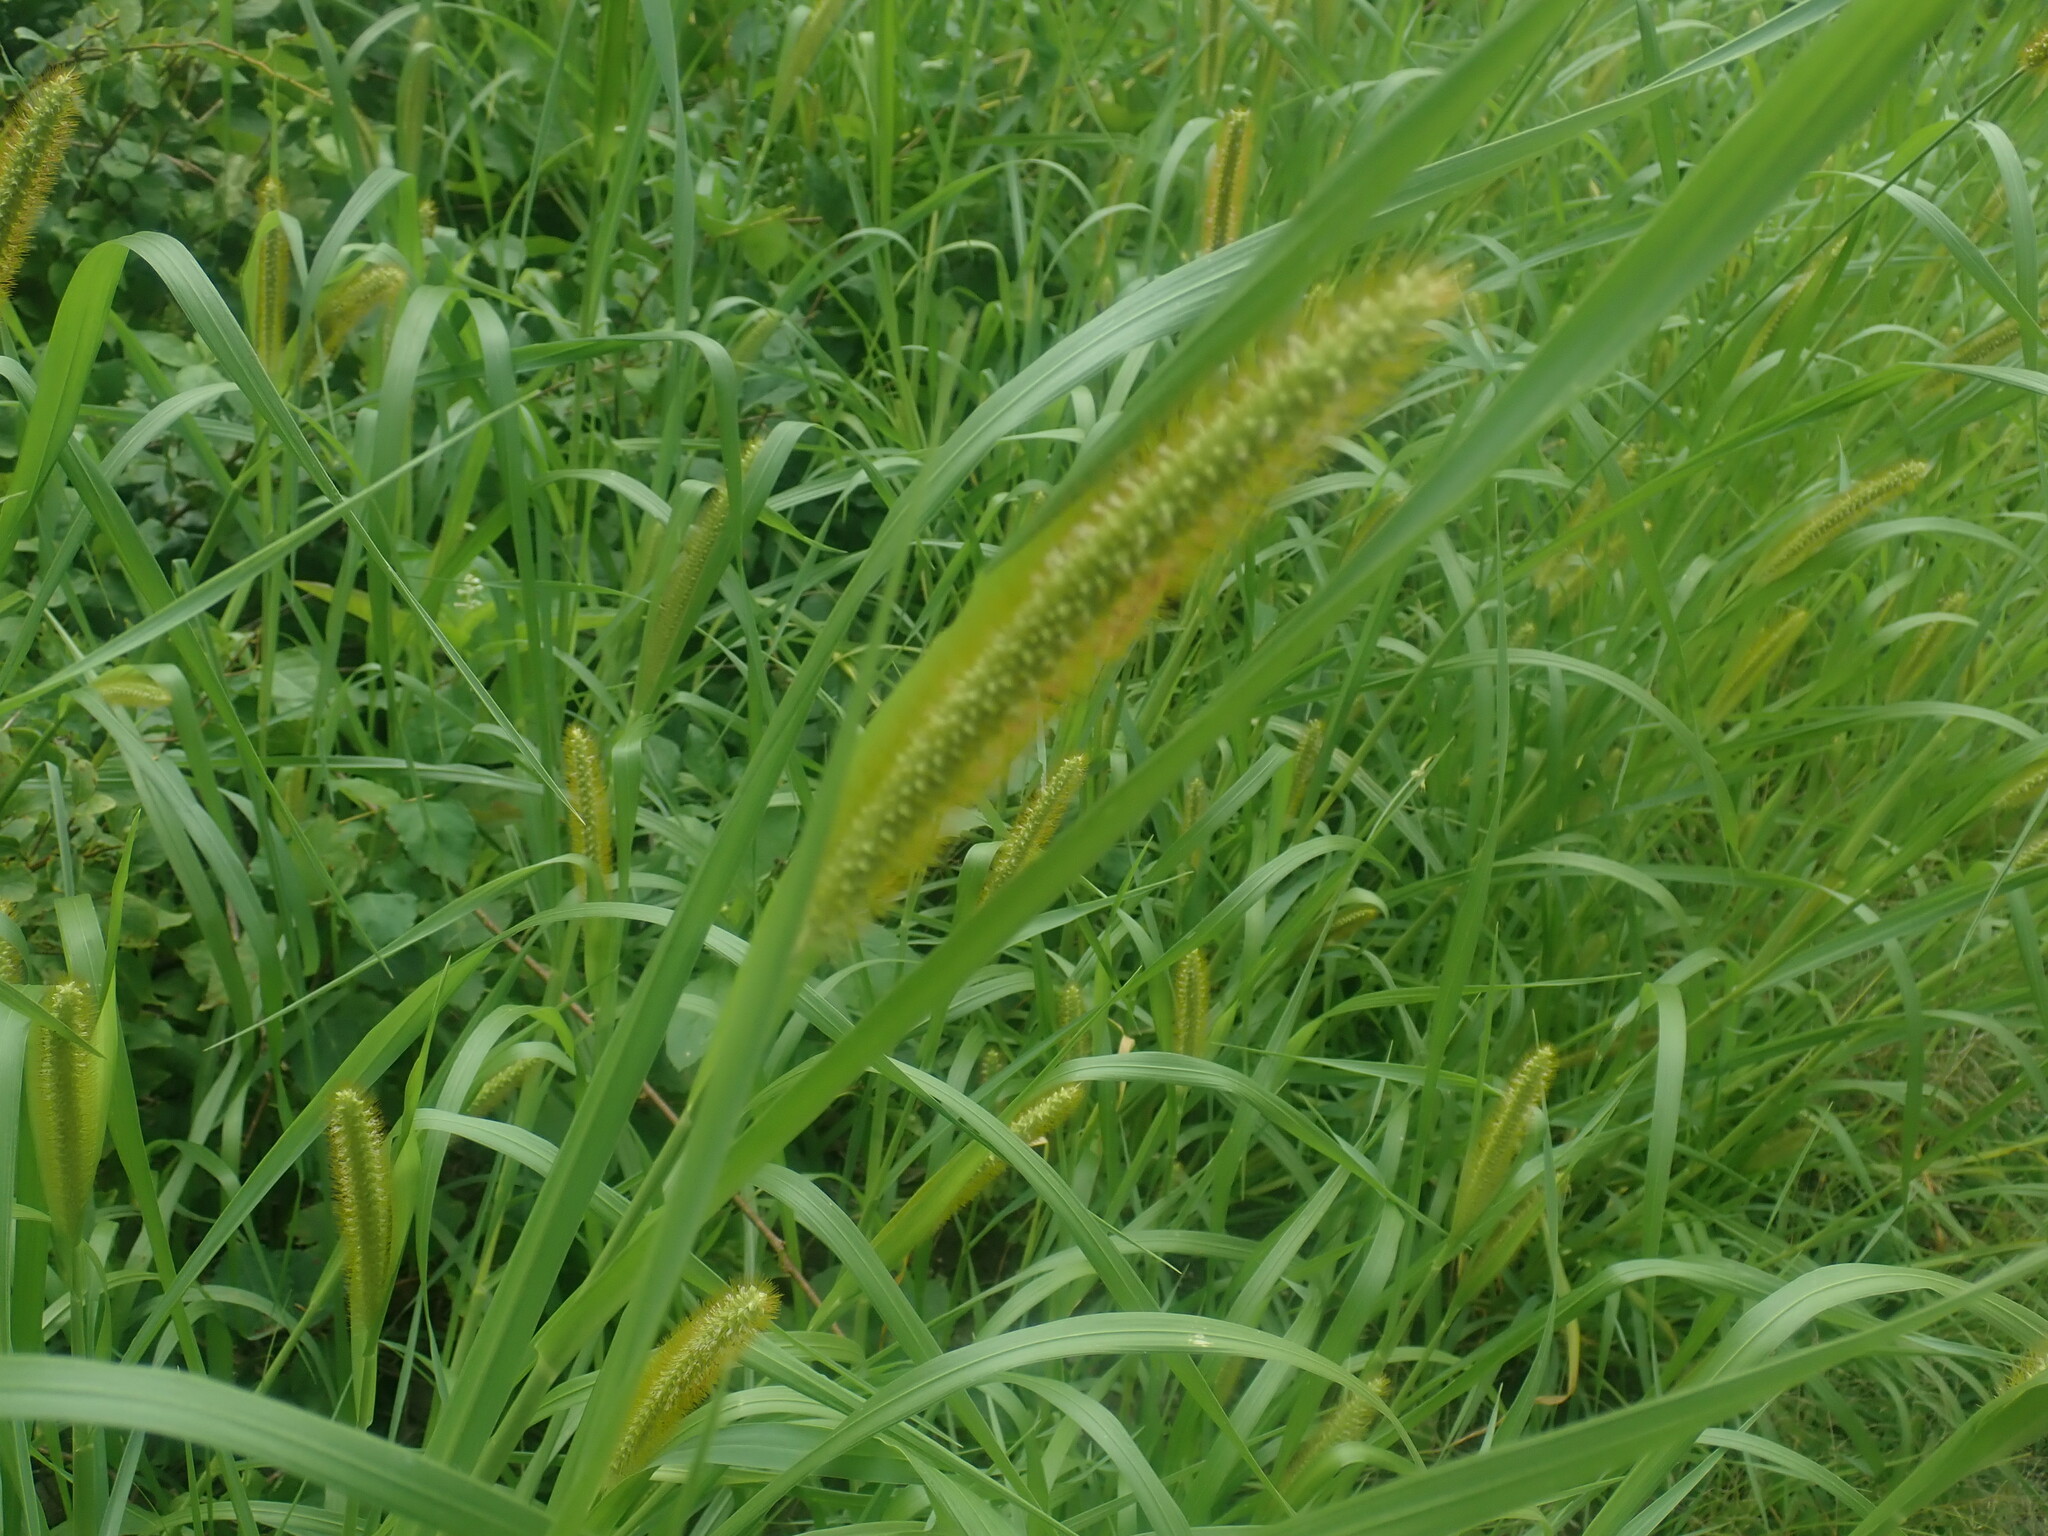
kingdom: Plantae
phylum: Tracheophyta
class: Liliopsida
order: Poales
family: Poaceae
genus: Setaria
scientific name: Setaria pumila
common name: Yellow bristle-grass
